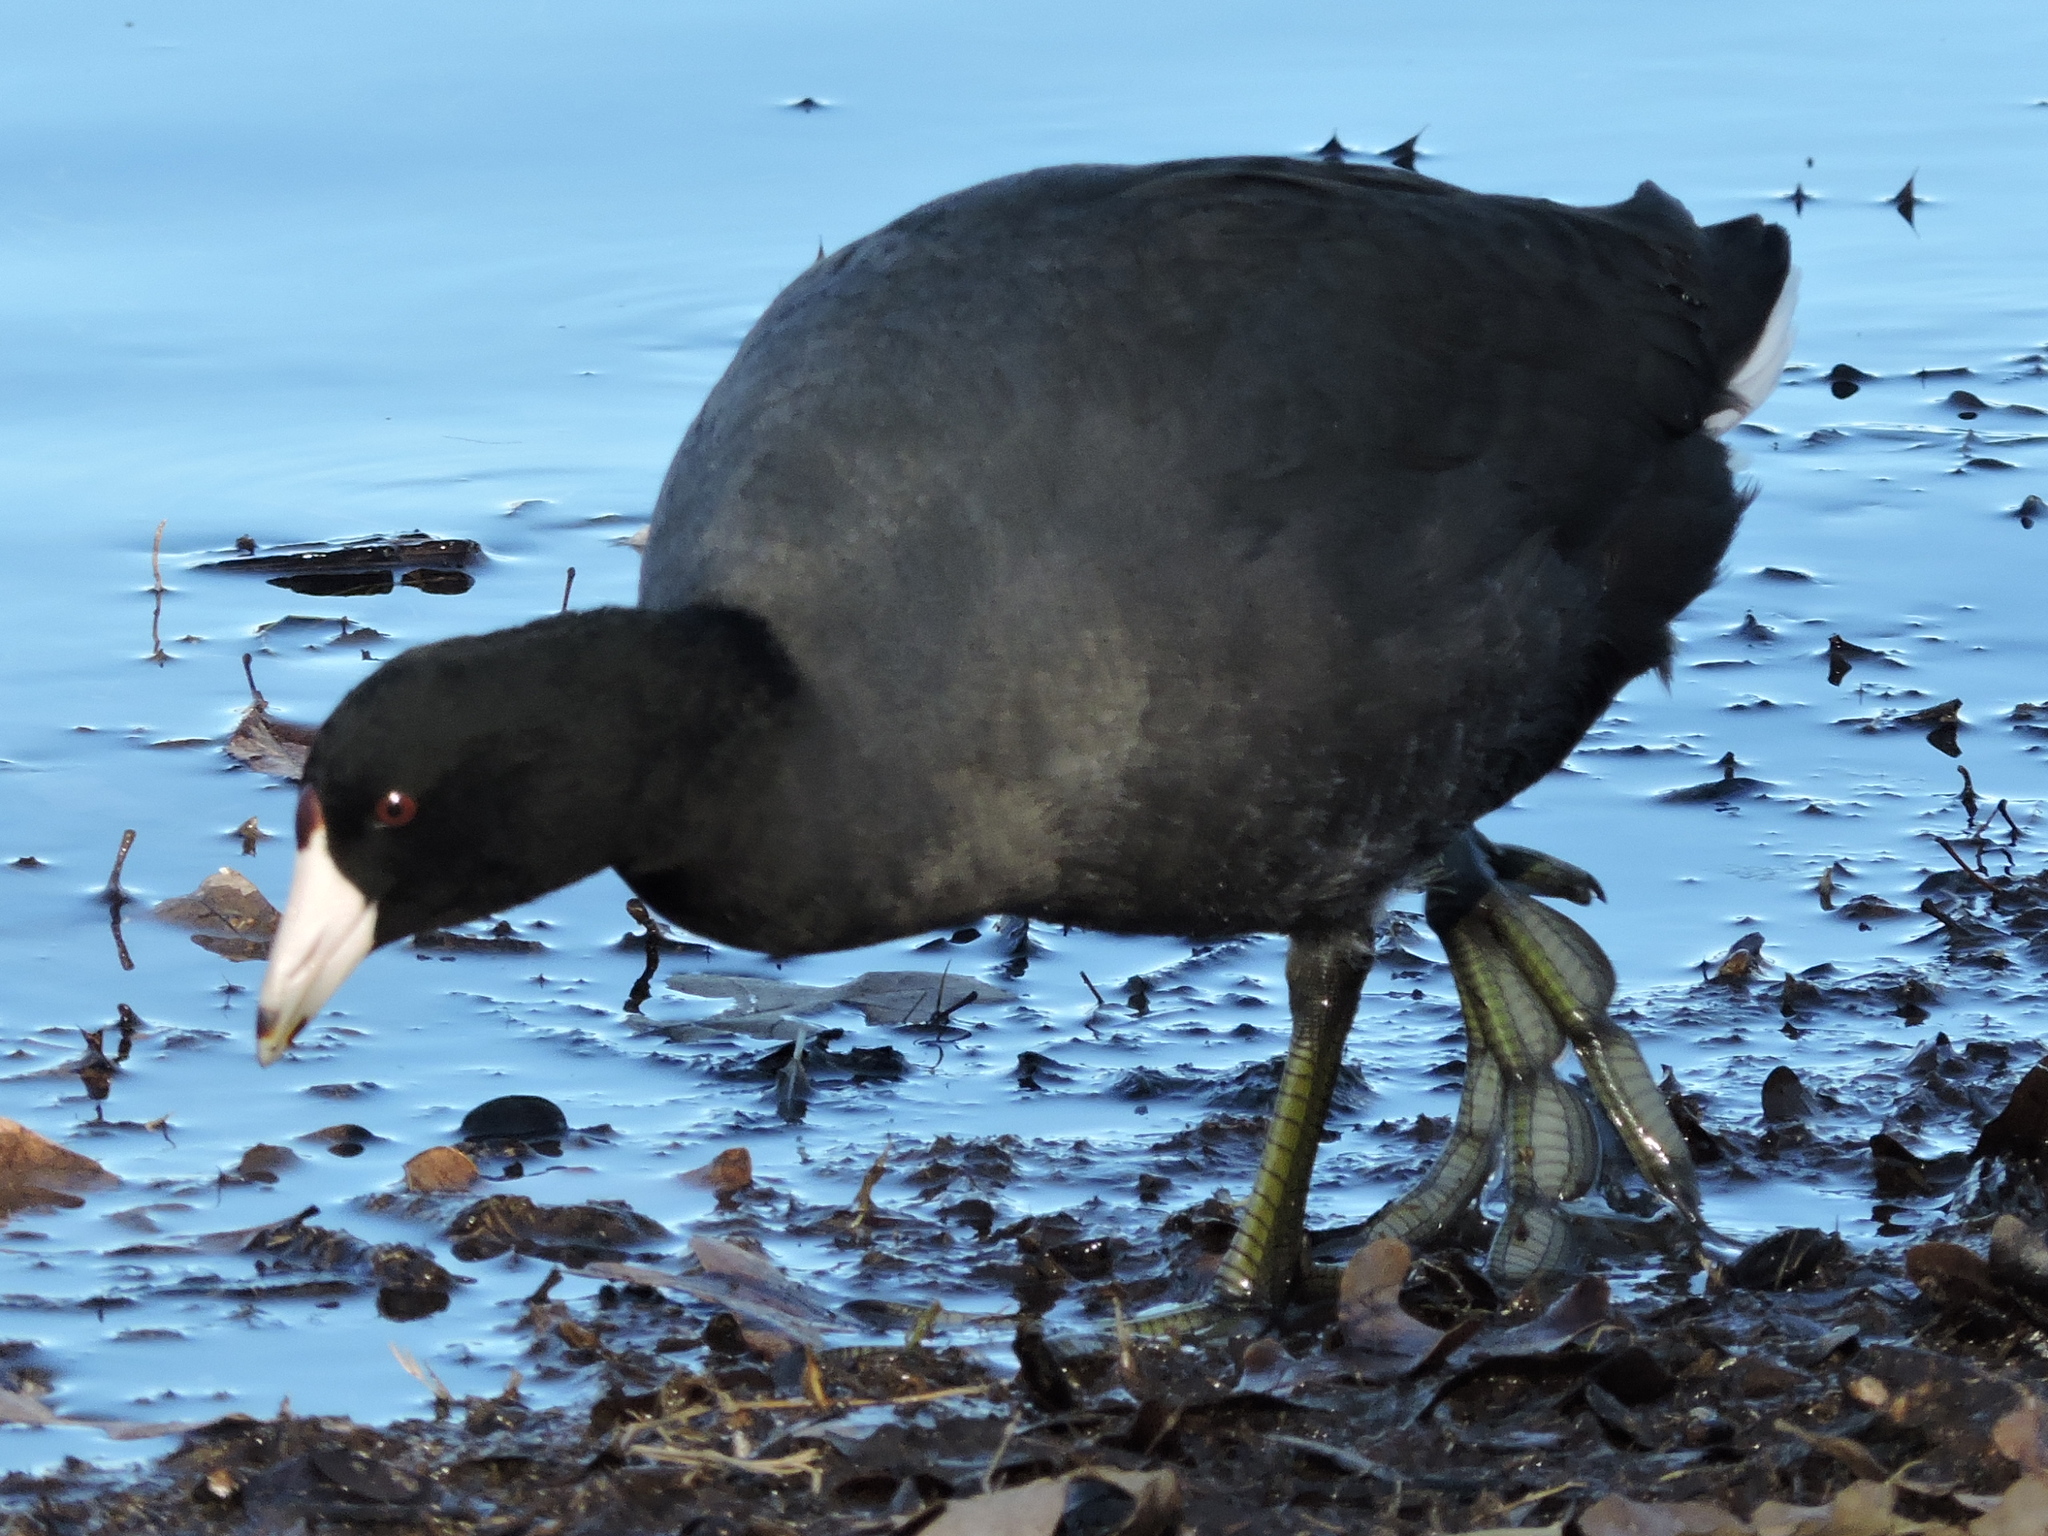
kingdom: Animalia
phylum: Chordata
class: Aves
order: Gruiformes
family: Rallidae
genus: Fulica
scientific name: Fulica americana
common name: American coot
